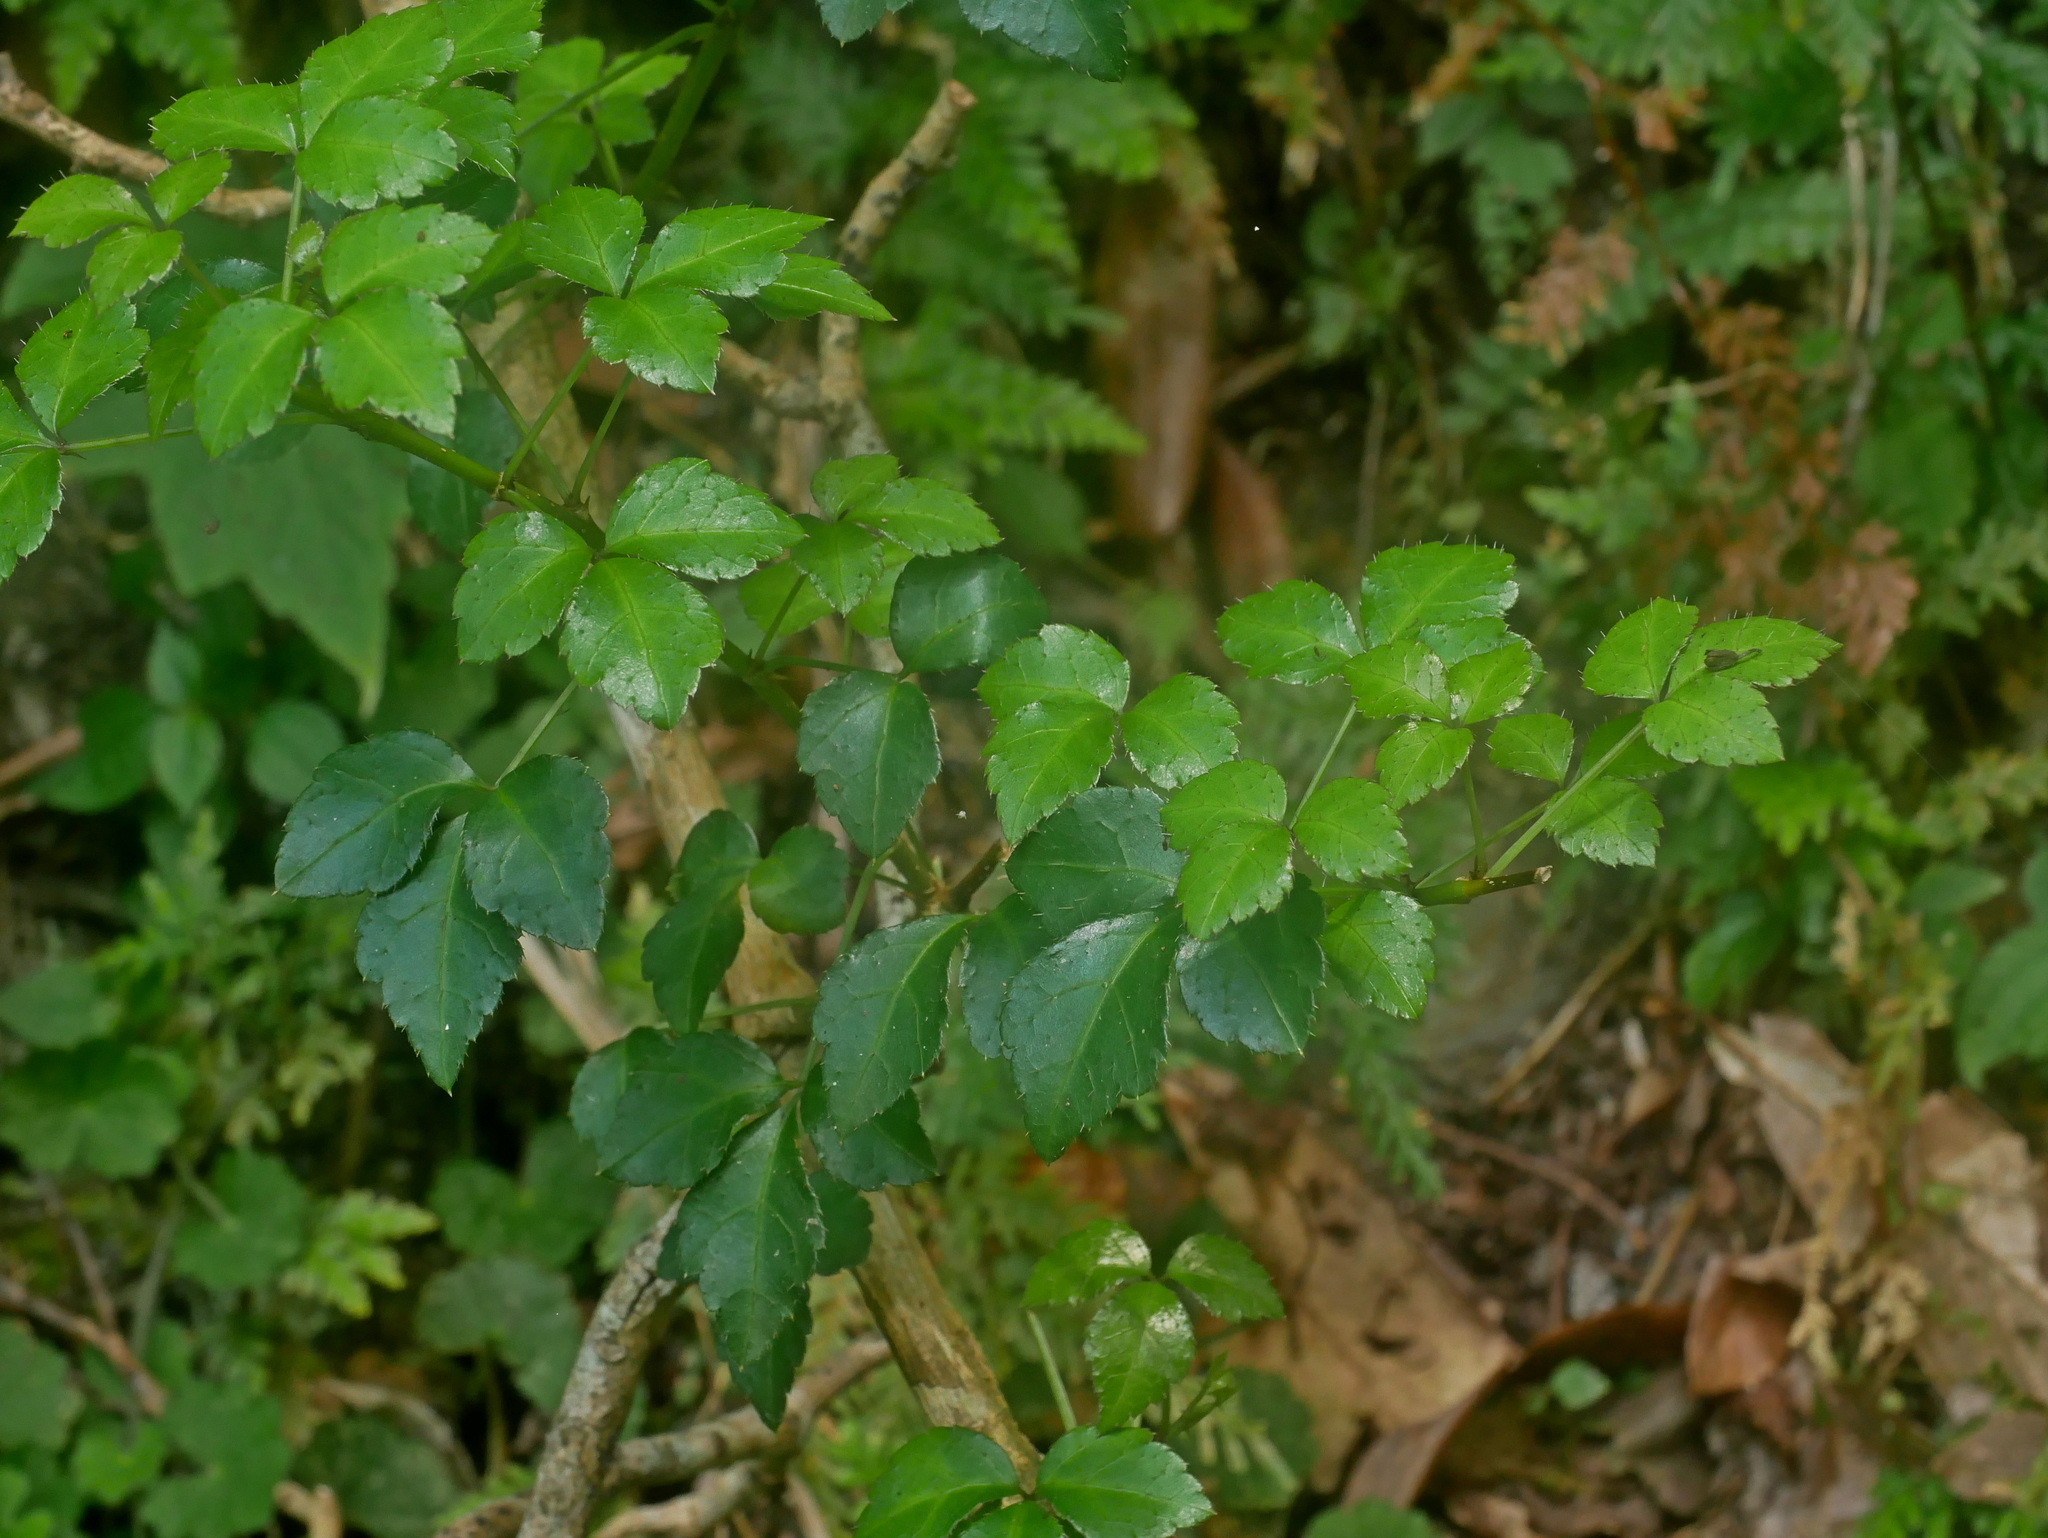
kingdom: Plantae
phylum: Tracheophyta
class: Magnoliopsida
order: Apiales
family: Araliaceae
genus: Eleutherococcus
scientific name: Eleutherococcus setosus
